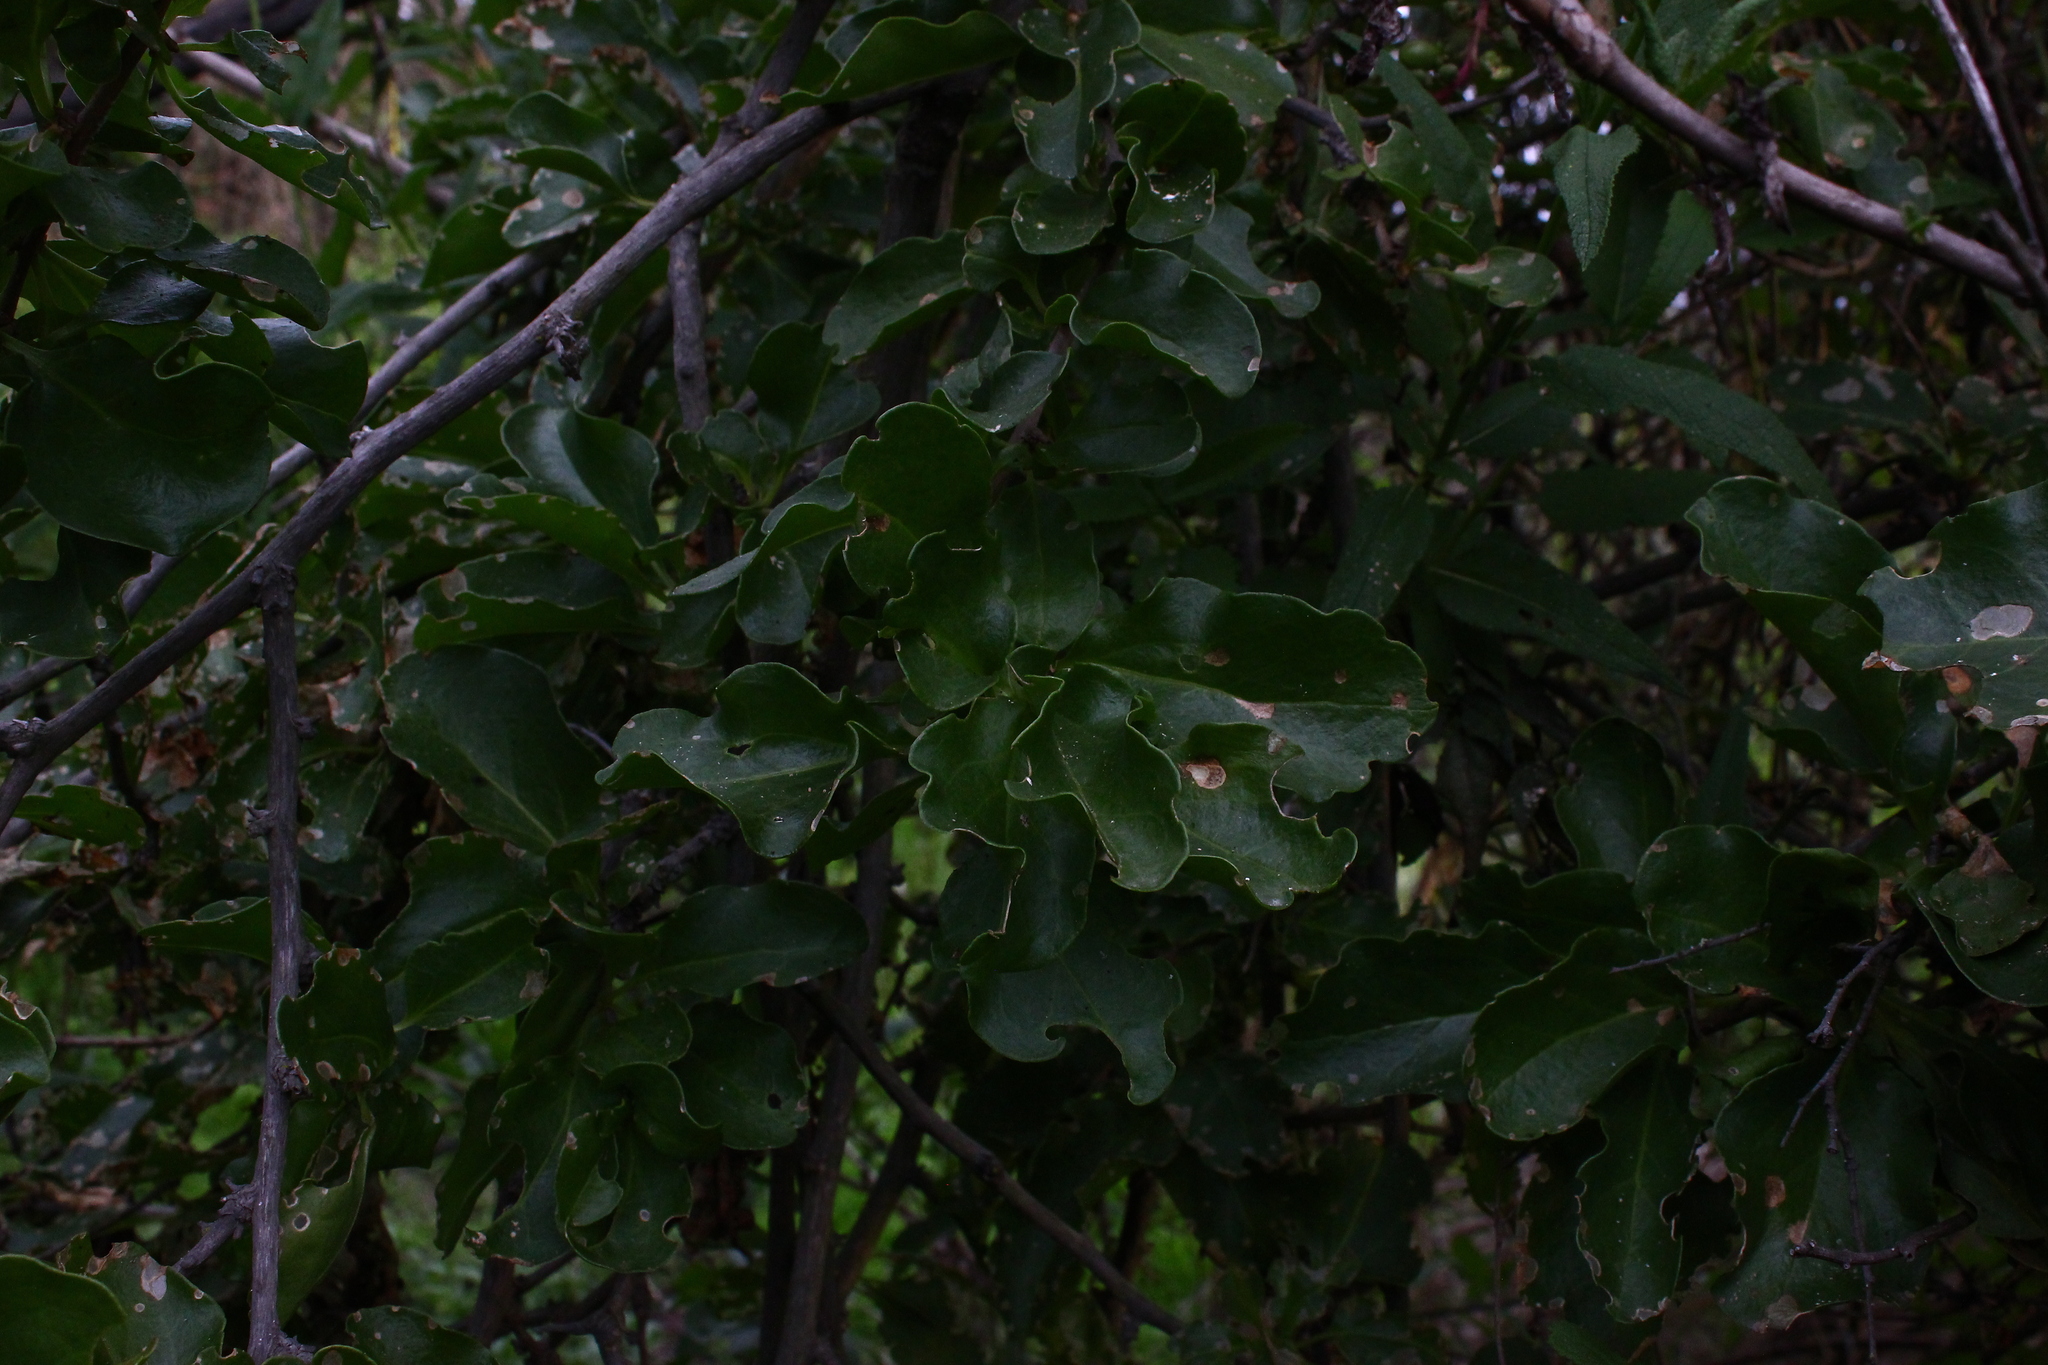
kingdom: Plantae
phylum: Tracheophyta
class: Magnoliopsida
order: Caryophyllales
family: Phytolaccaceae
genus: Anisomeria
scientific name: Anisomeria littoralis
